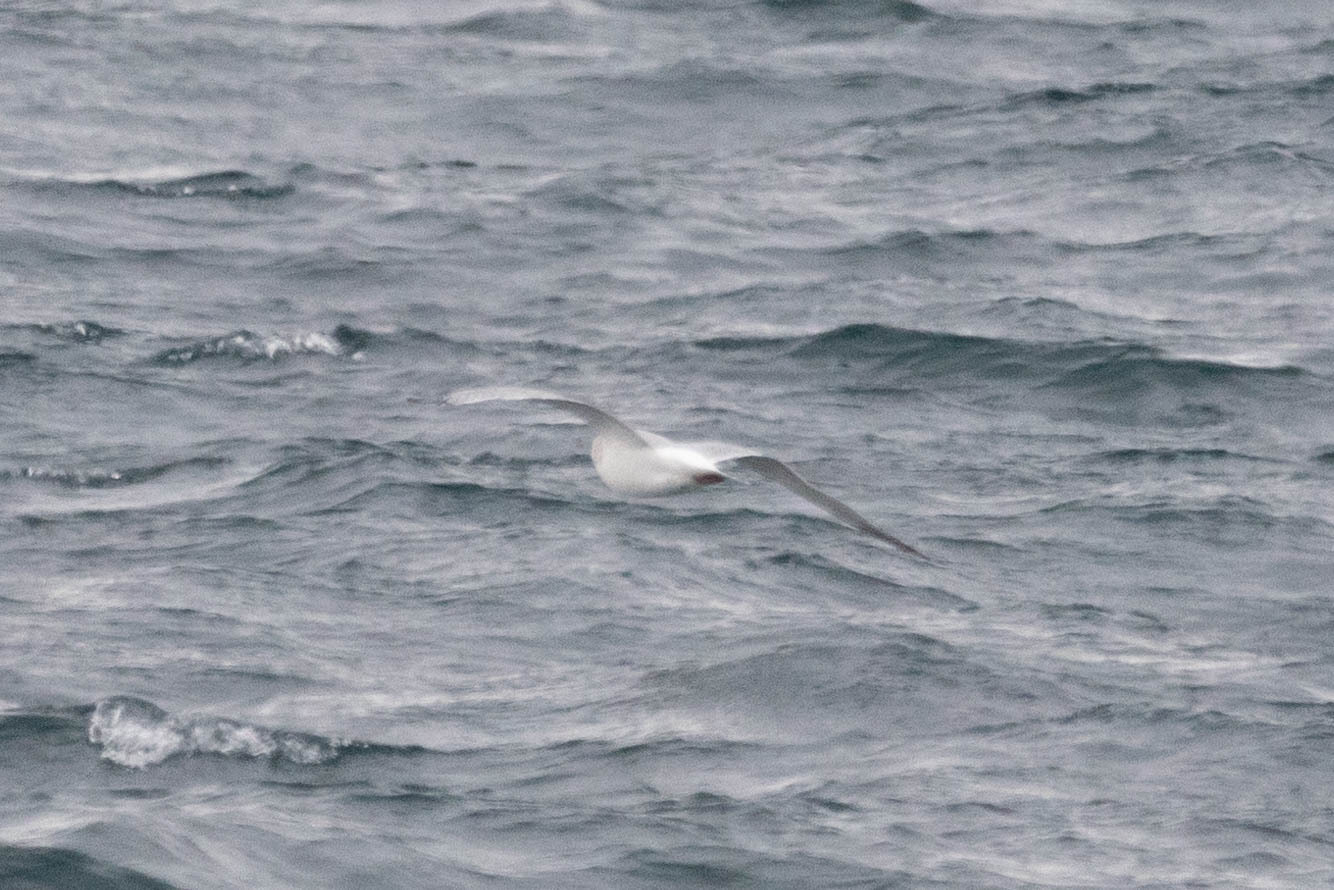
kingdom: Animalia
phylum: Chordata
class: Aves
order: Charadriiformes
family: Laridae
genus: Larus
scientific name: Larus glaucoides
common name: Iceland gull
